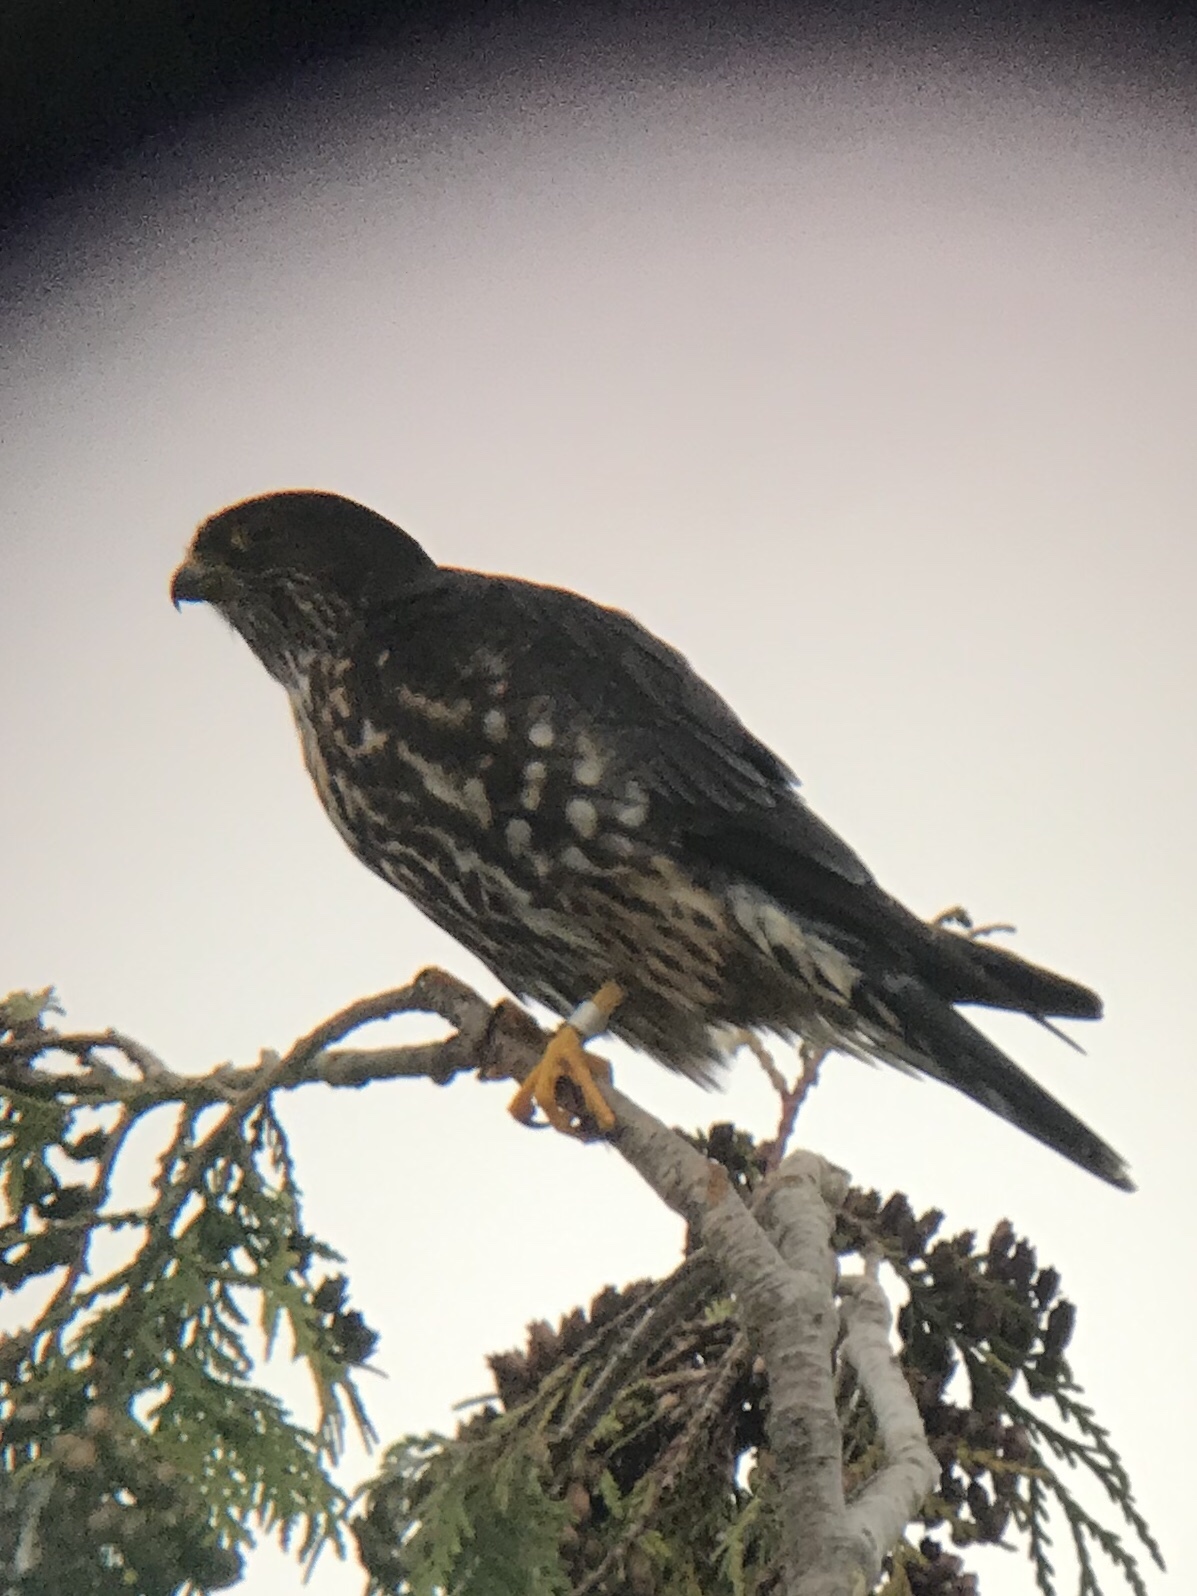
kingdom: Animalia
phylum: Chordata
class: Aves
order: Falconiformes
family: Falconidae
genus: Falco
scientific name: Falco columbarius
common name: Merlin
